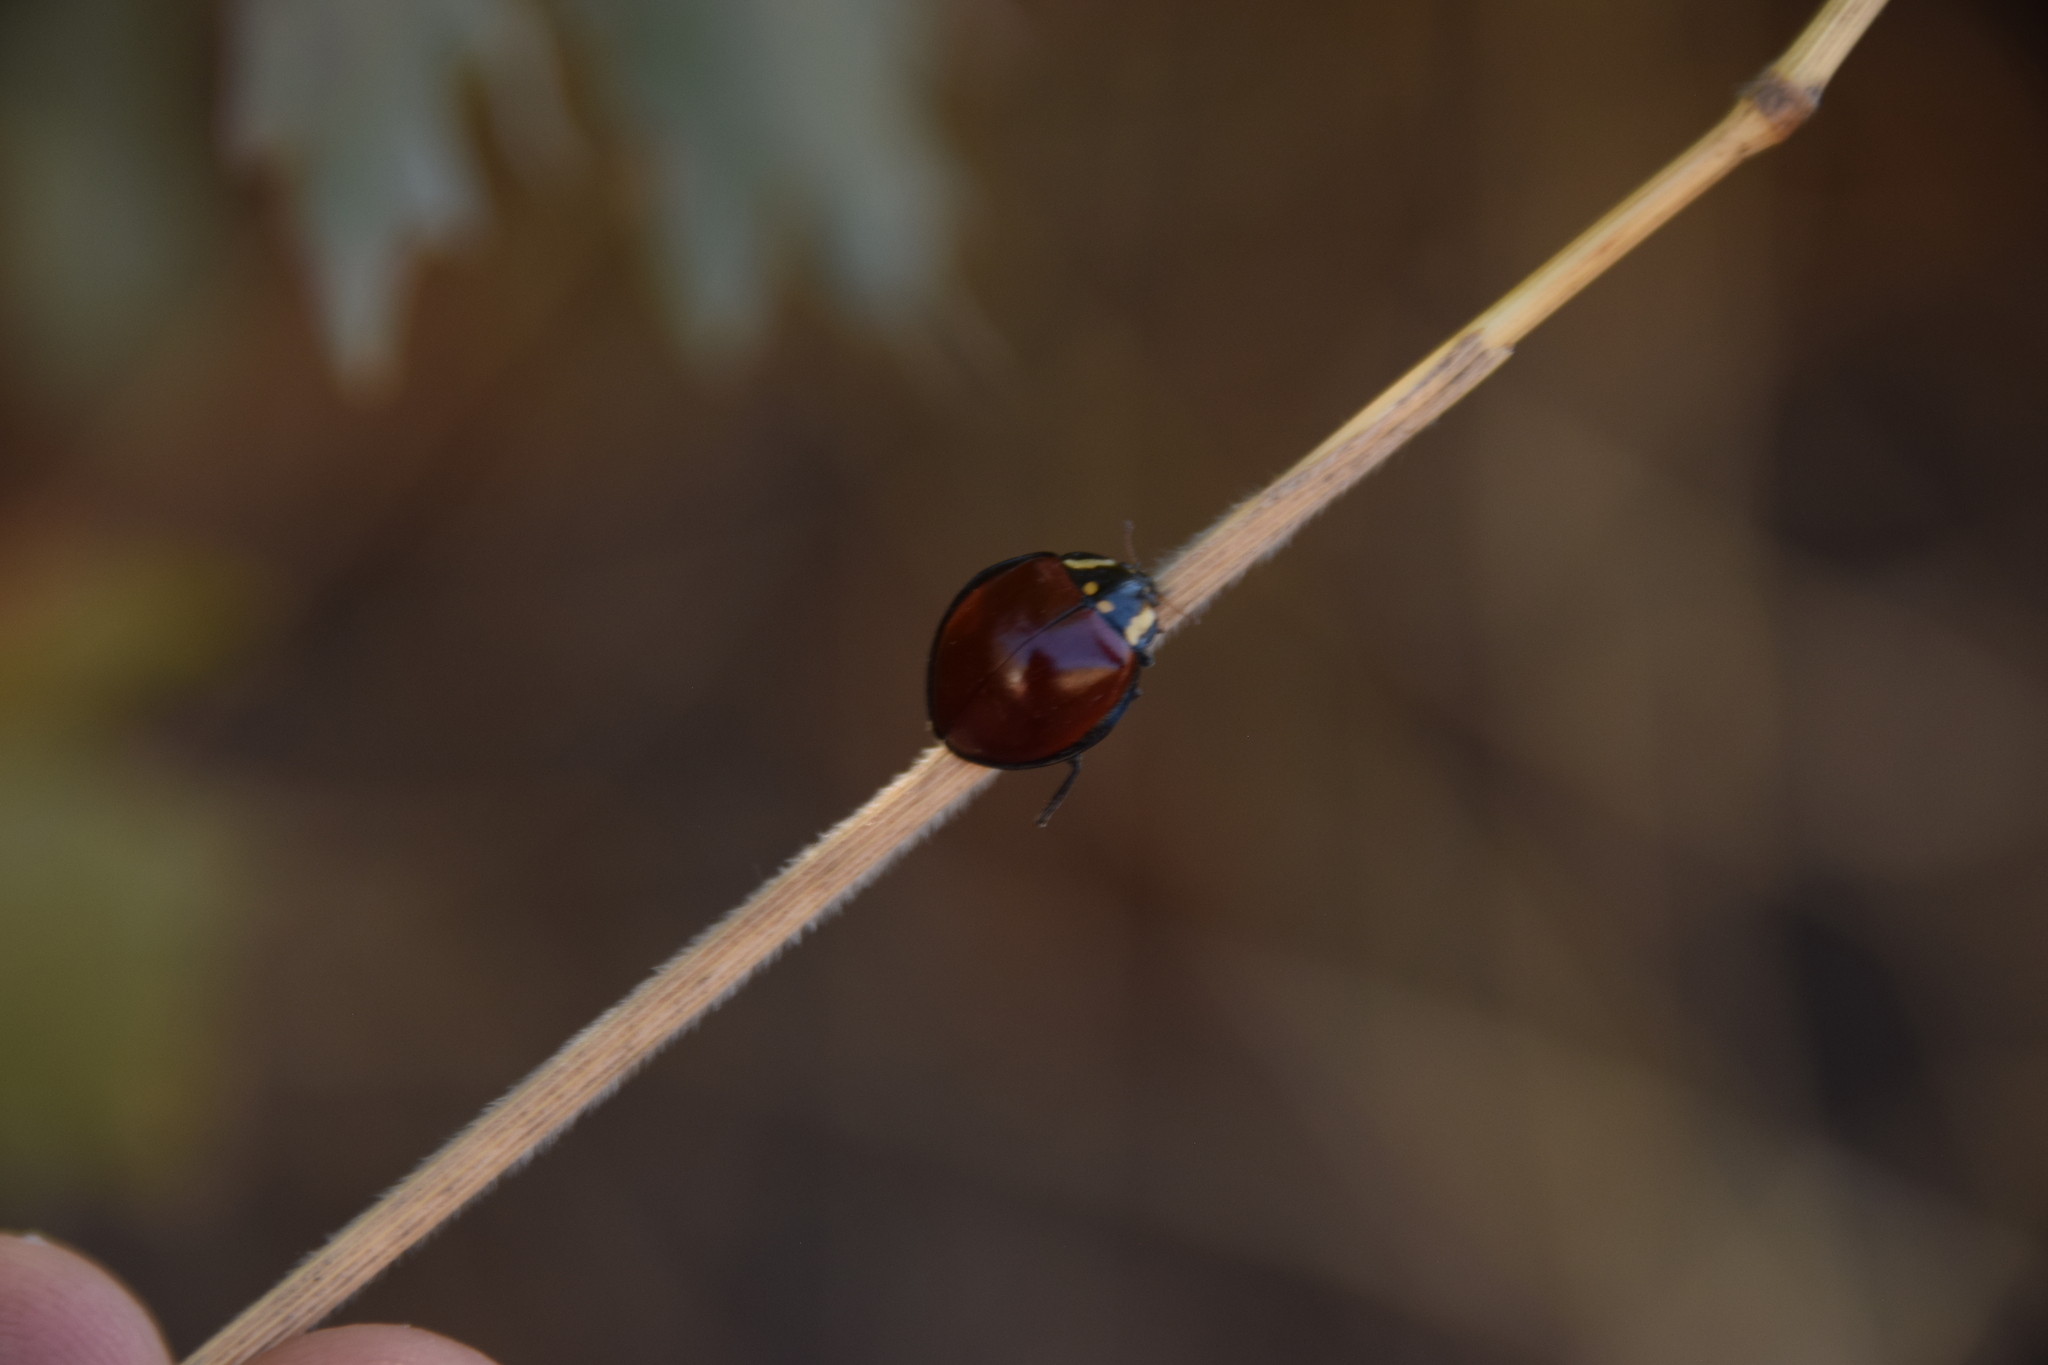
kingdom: Animalia
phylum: Arthropoda
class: Insecta
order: Coleoptera
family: Coccinellidae
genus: Anatis
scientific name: Anatis lecontei
